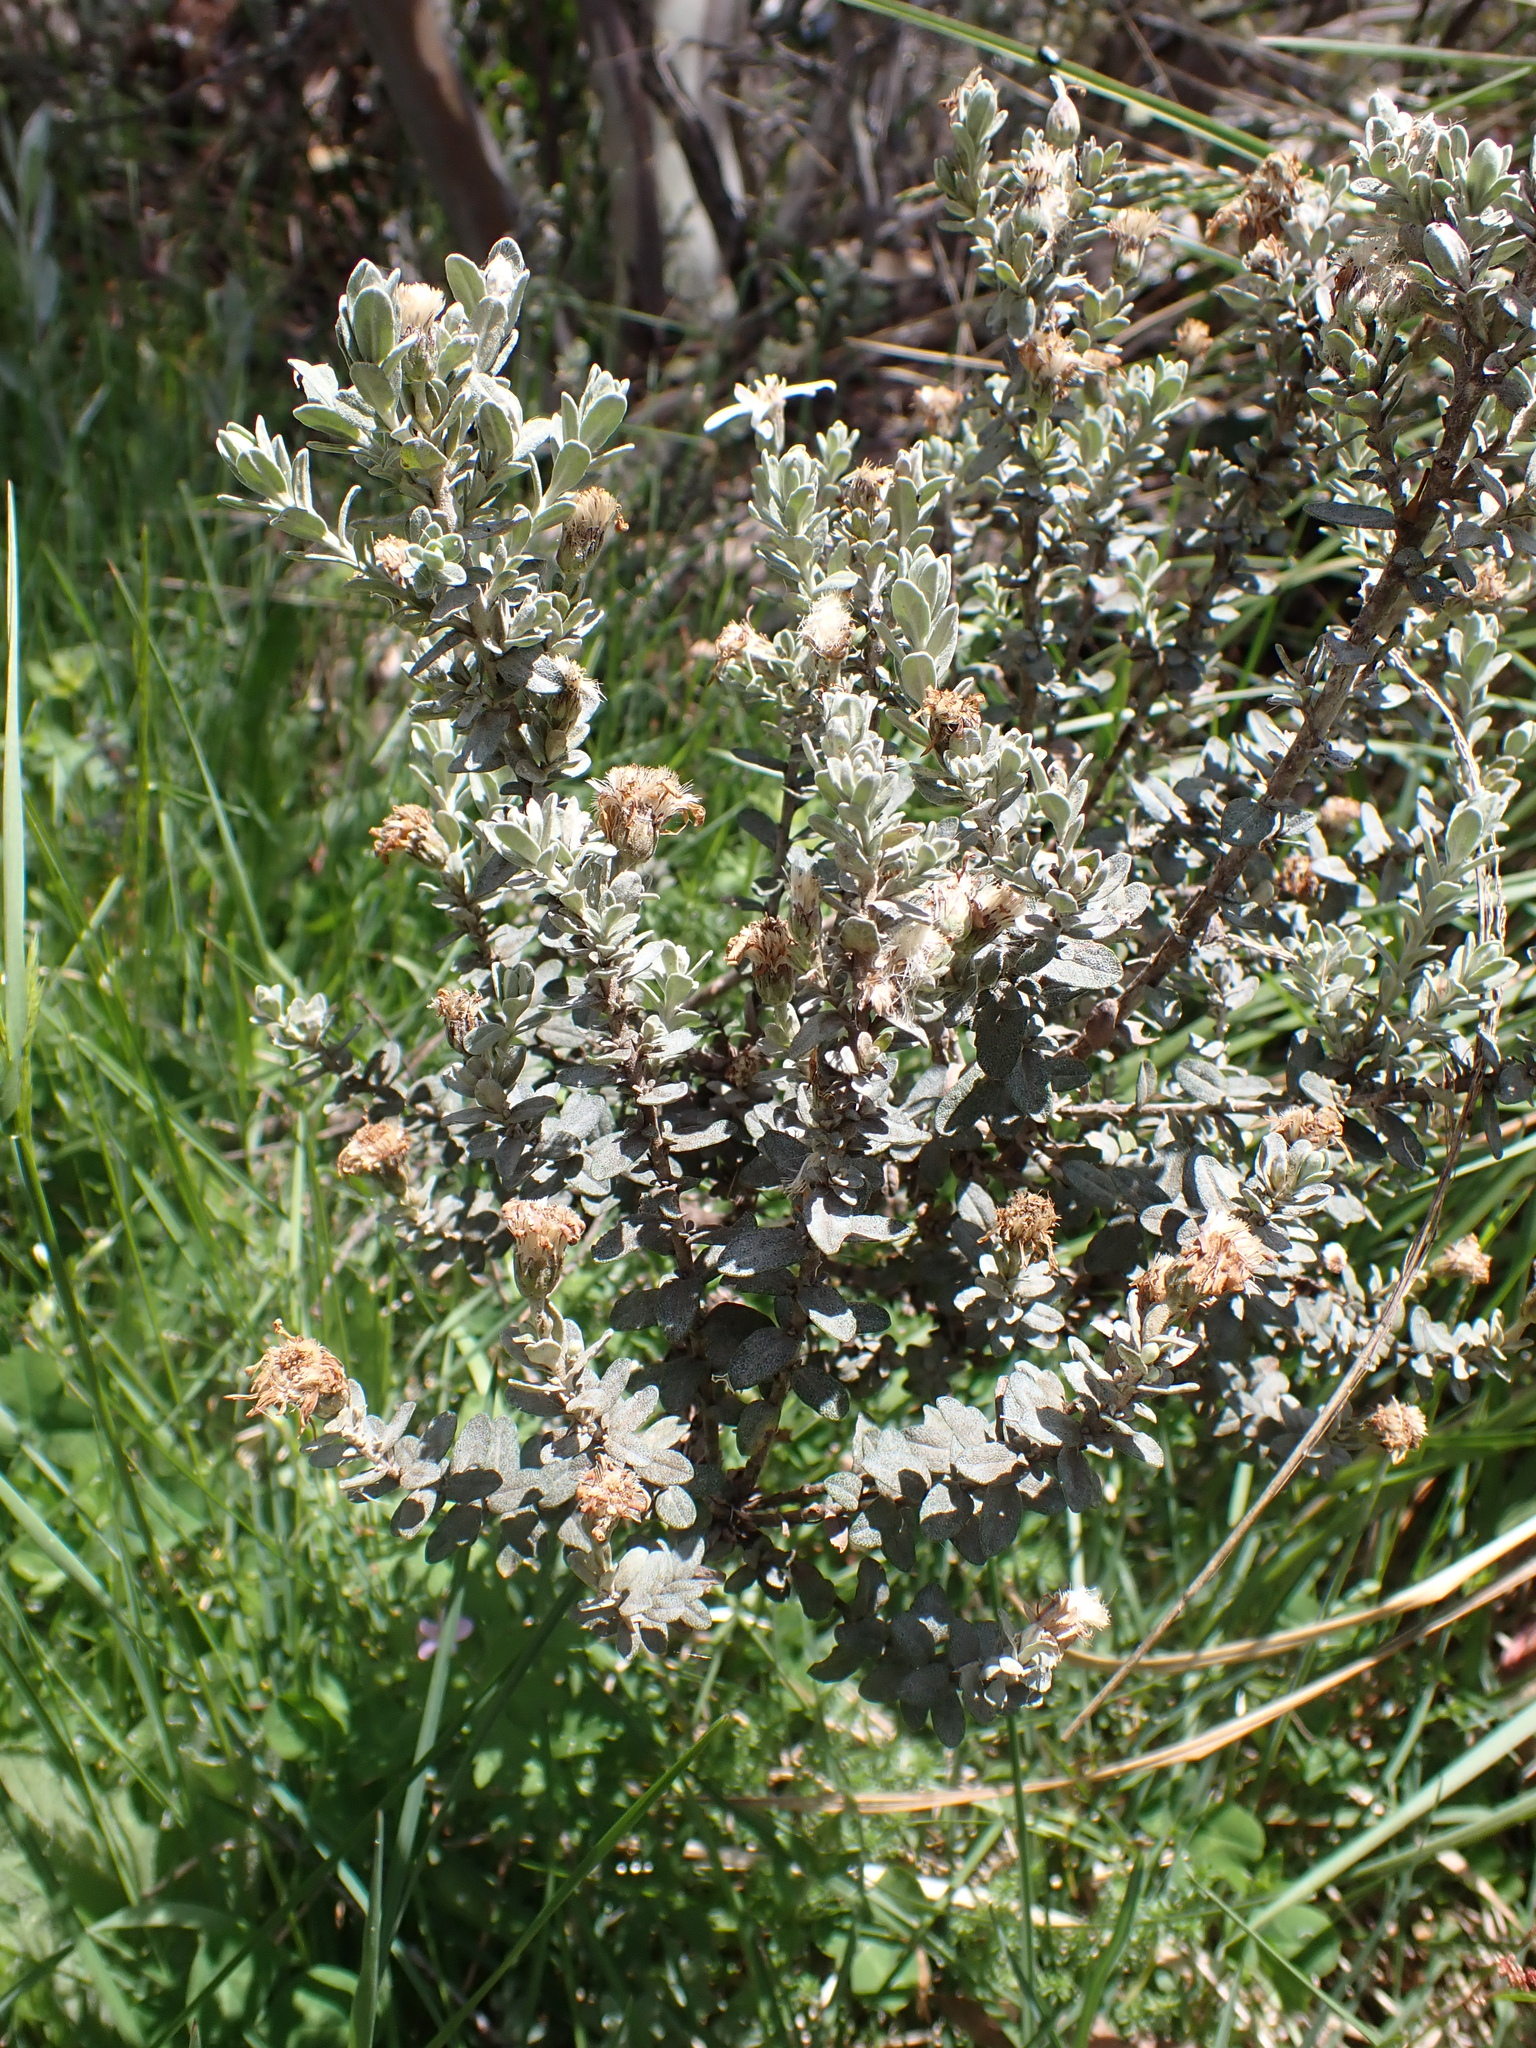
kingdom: Plantae
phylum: Tracheophyta
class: Magnoliopsida
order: Asterales
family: Asteraceae
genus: Olearia
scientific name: Olearia brevipedunculata
